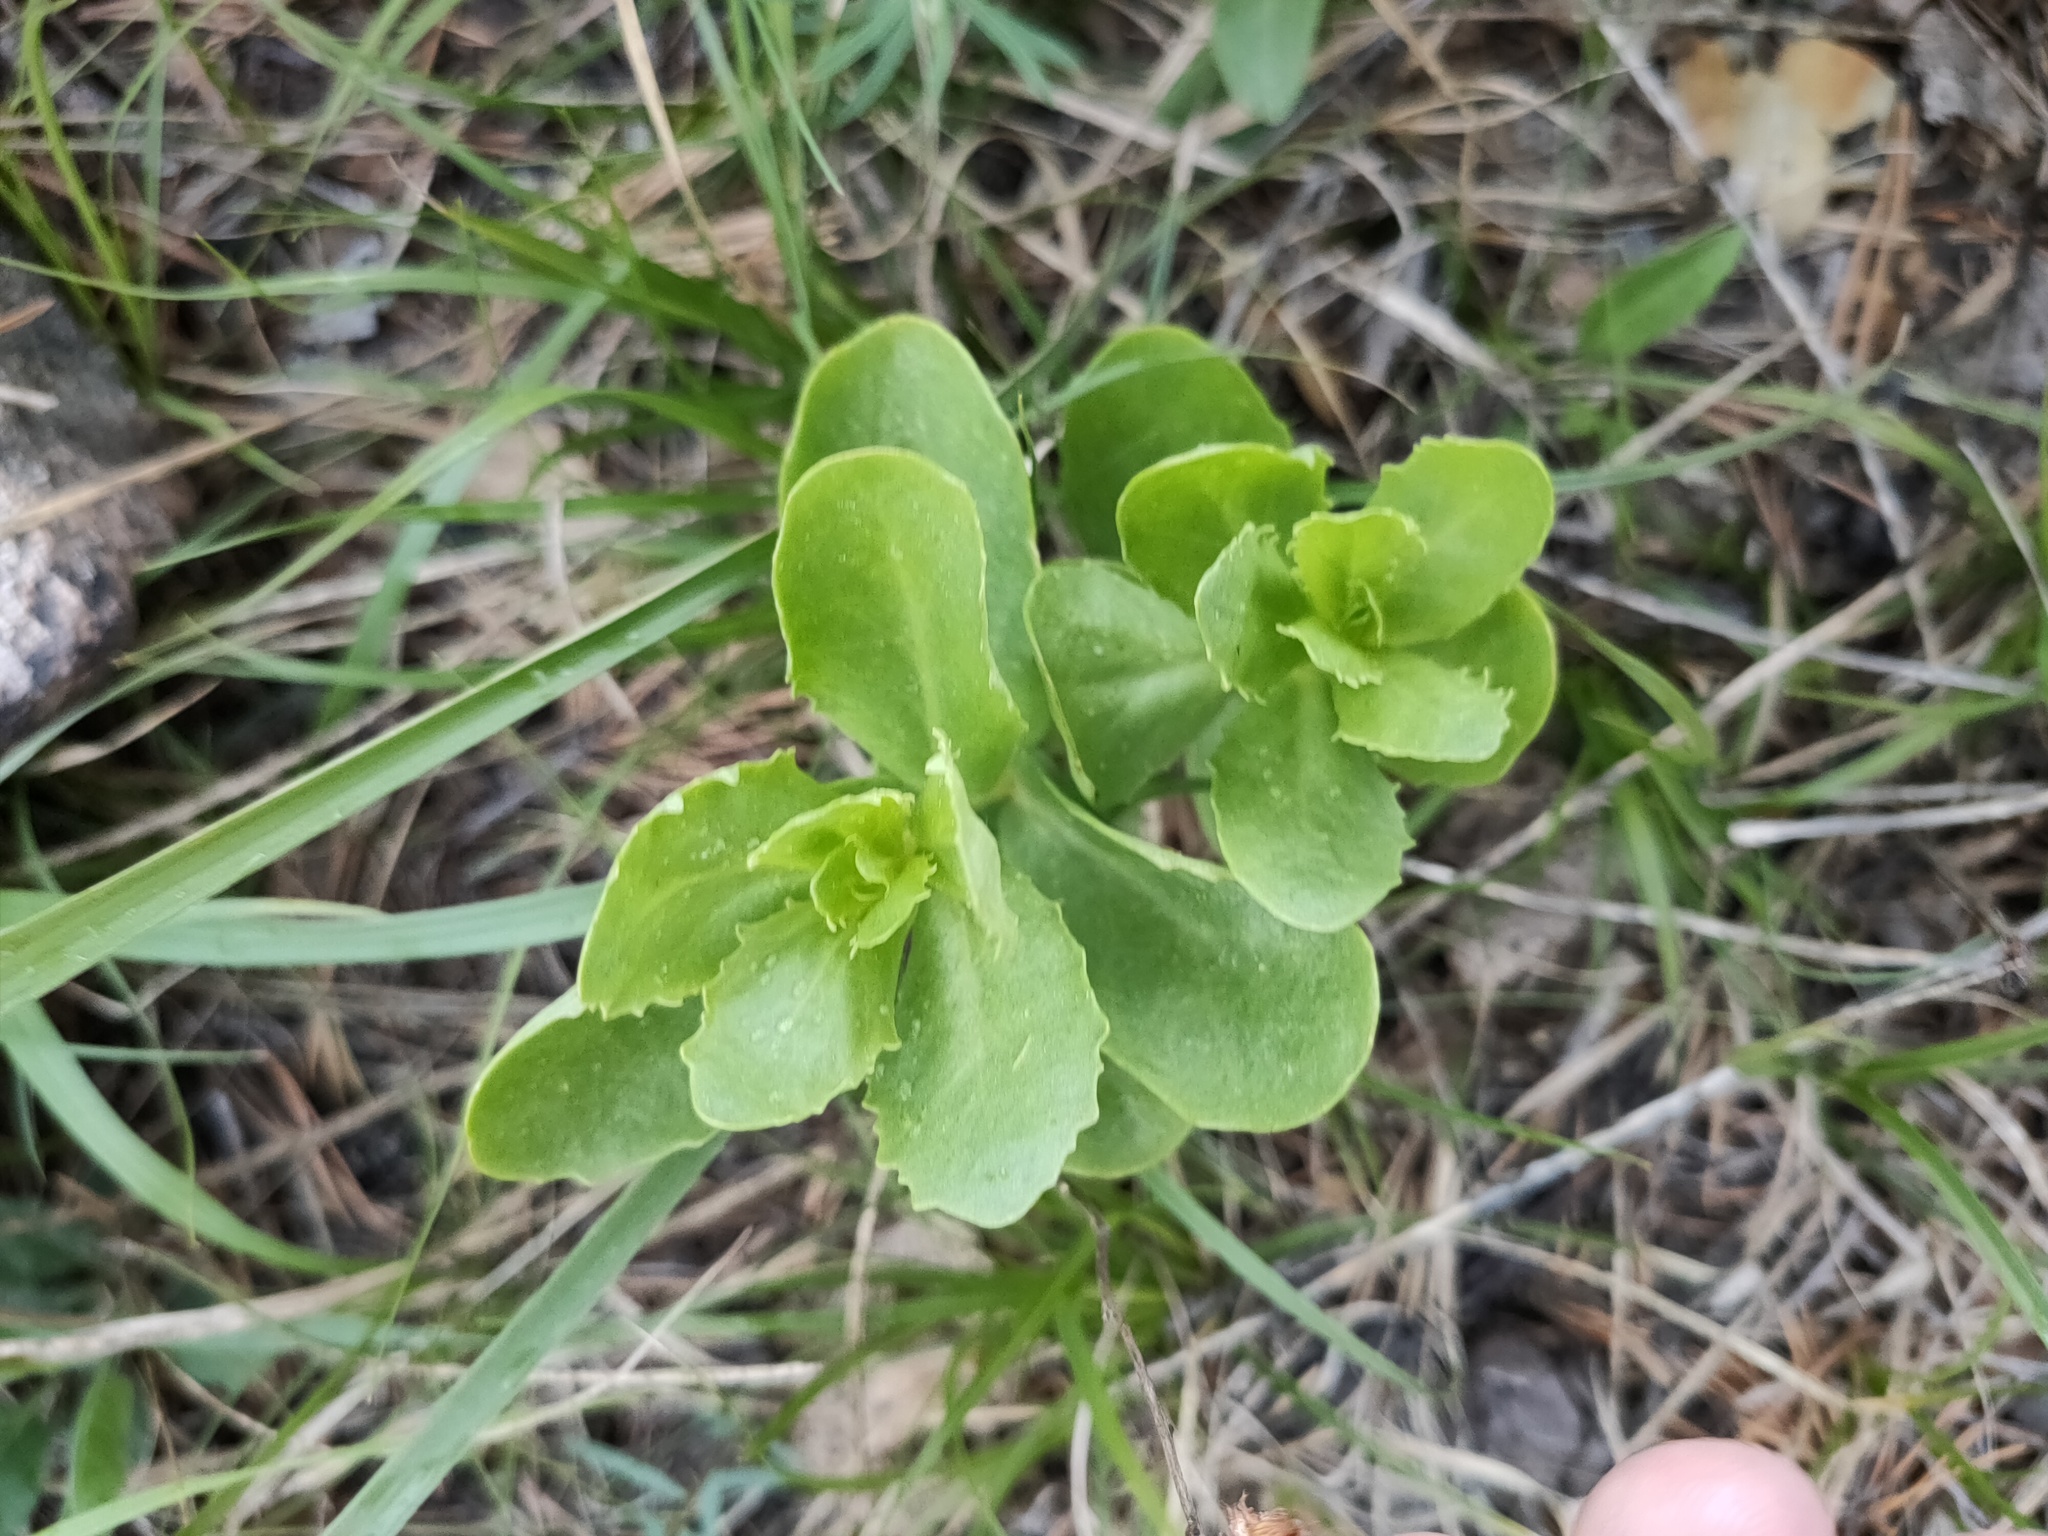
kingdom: Plantae
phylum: Tracheophyta
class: Magnoliopsida
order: Saxifragales
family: Crassulaceae
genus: Hylotelephium
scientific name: Hylotelephium telephium
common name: Live-forever
